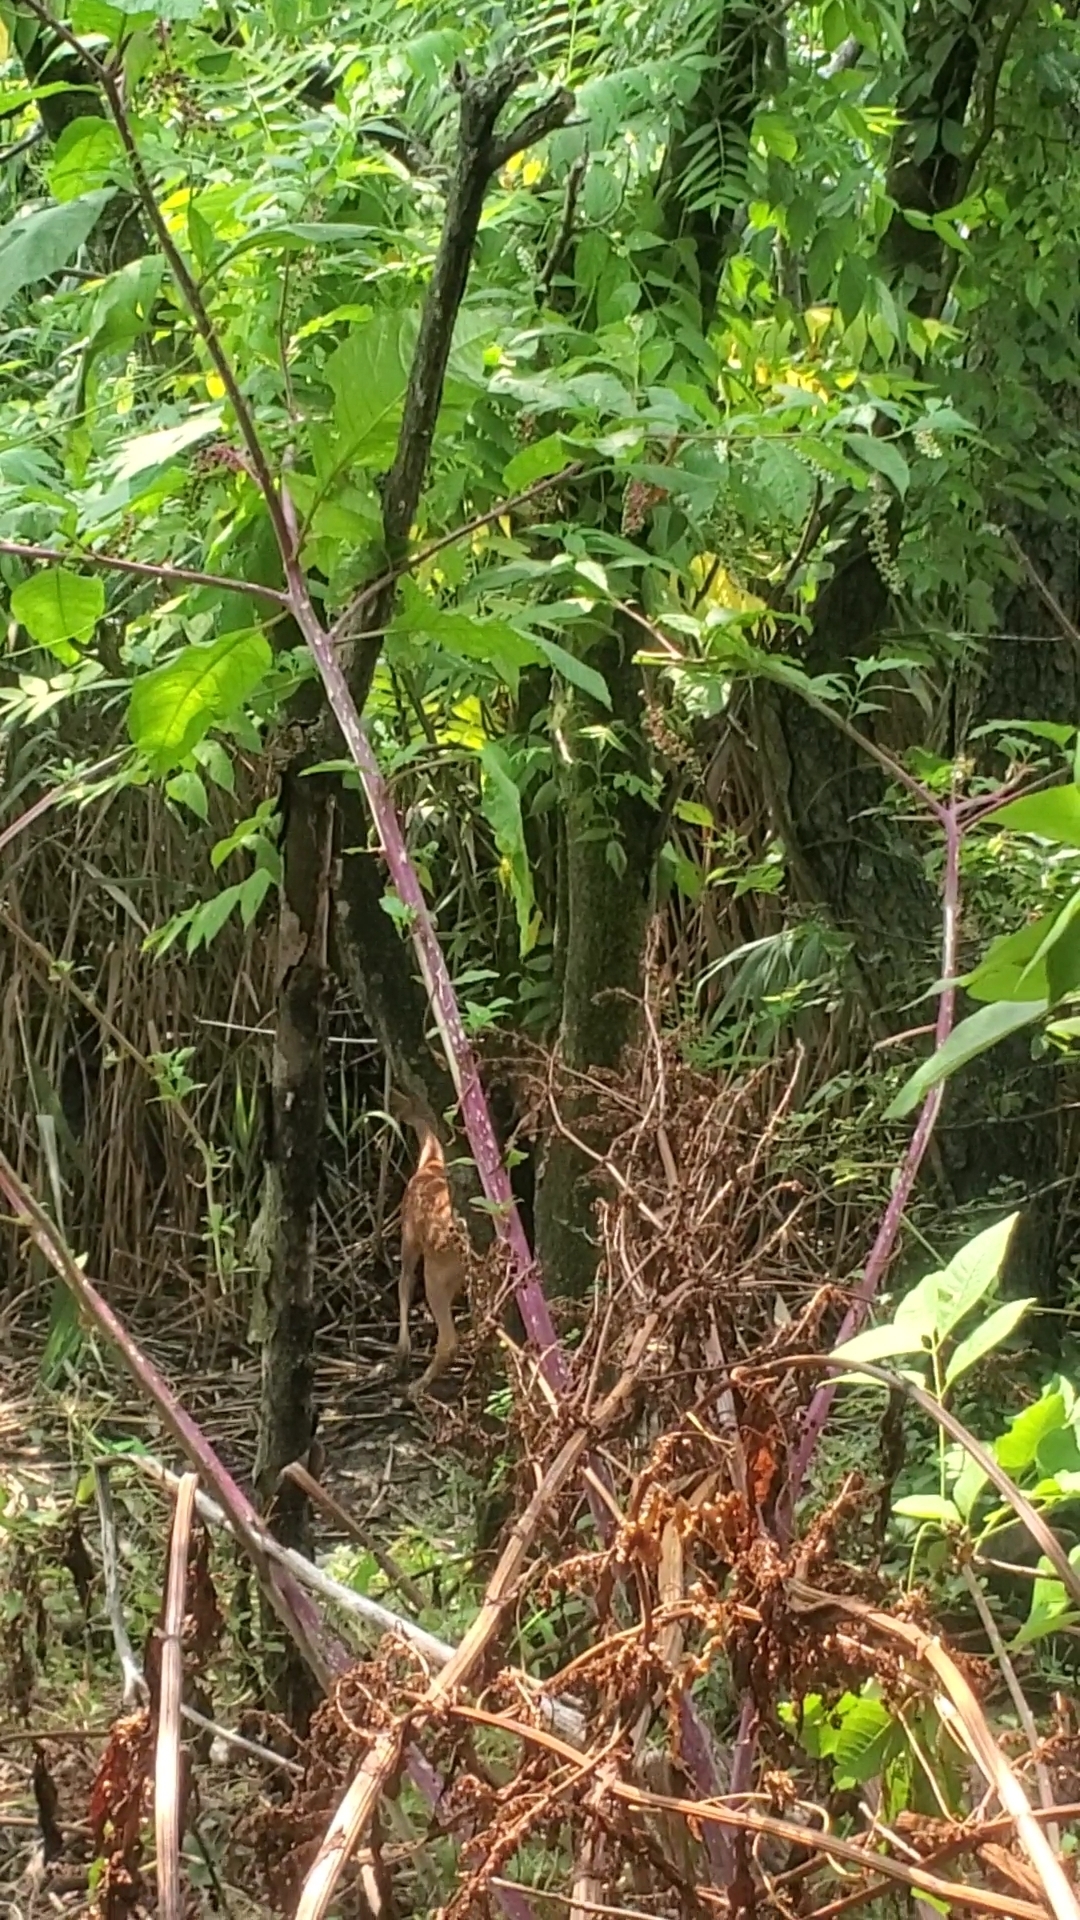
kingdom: Animalia
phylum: Chordata
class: Mammalia
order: Artiodactyla
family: Cervidae
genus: Odocoileus
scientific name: Odocoileus virginianus
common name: White-tailed deer
